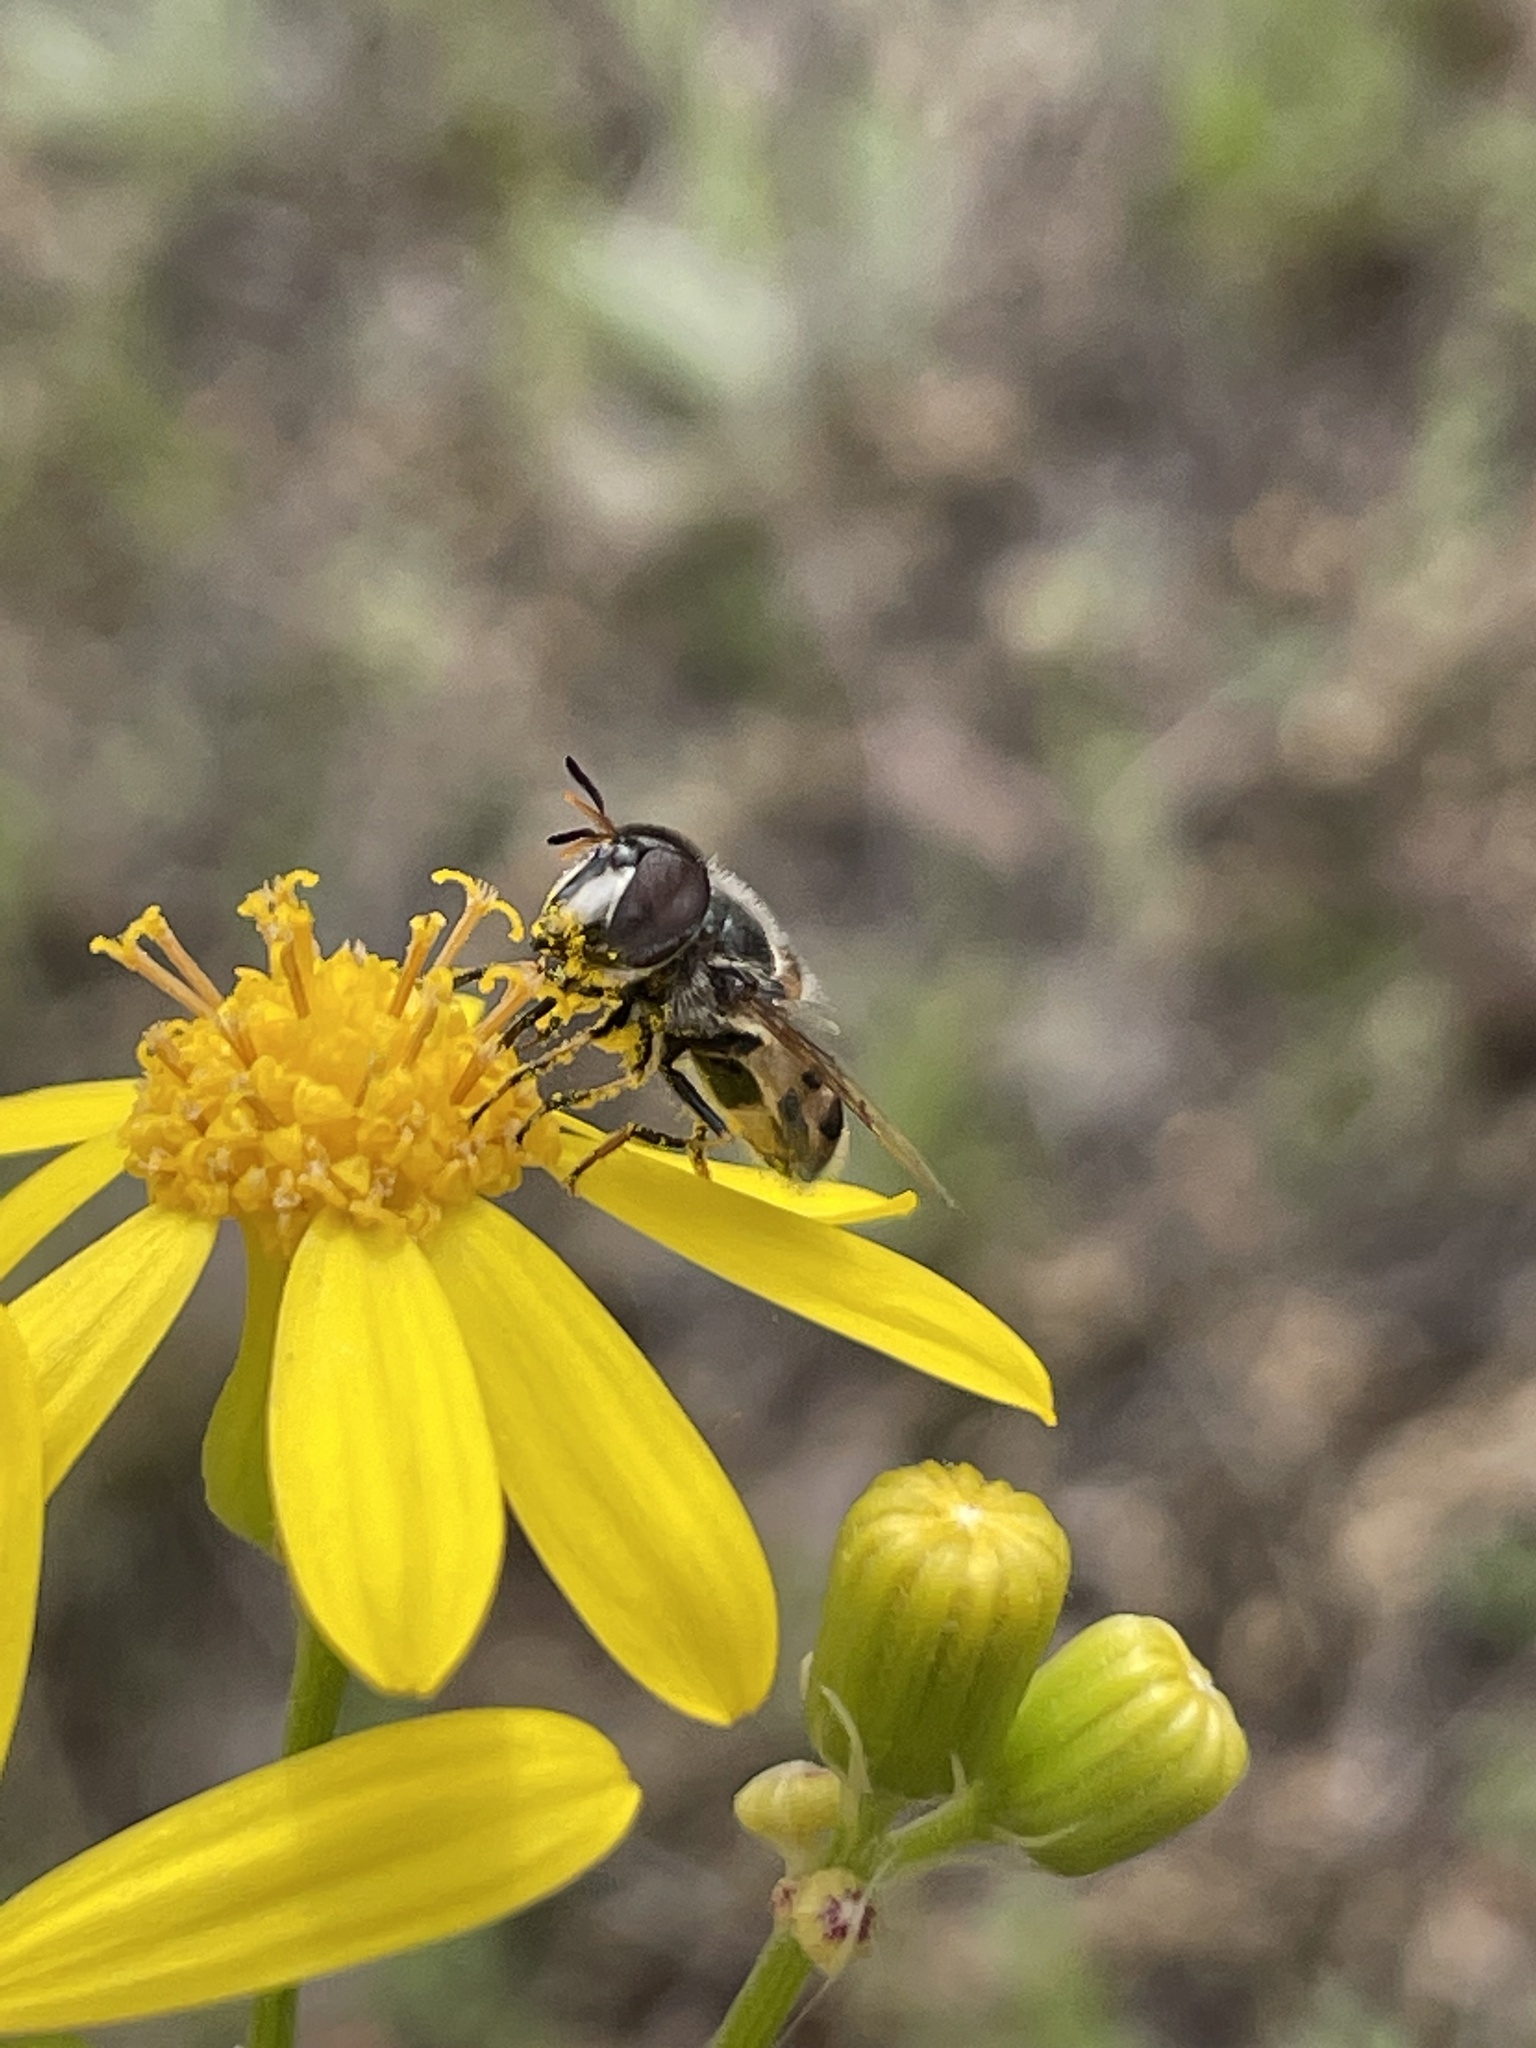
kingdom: Animalia
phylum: Arthropoda
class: Insecta
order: Diptera
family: Syrphidae
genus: Copestylum
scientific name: Copestylum marginatum
